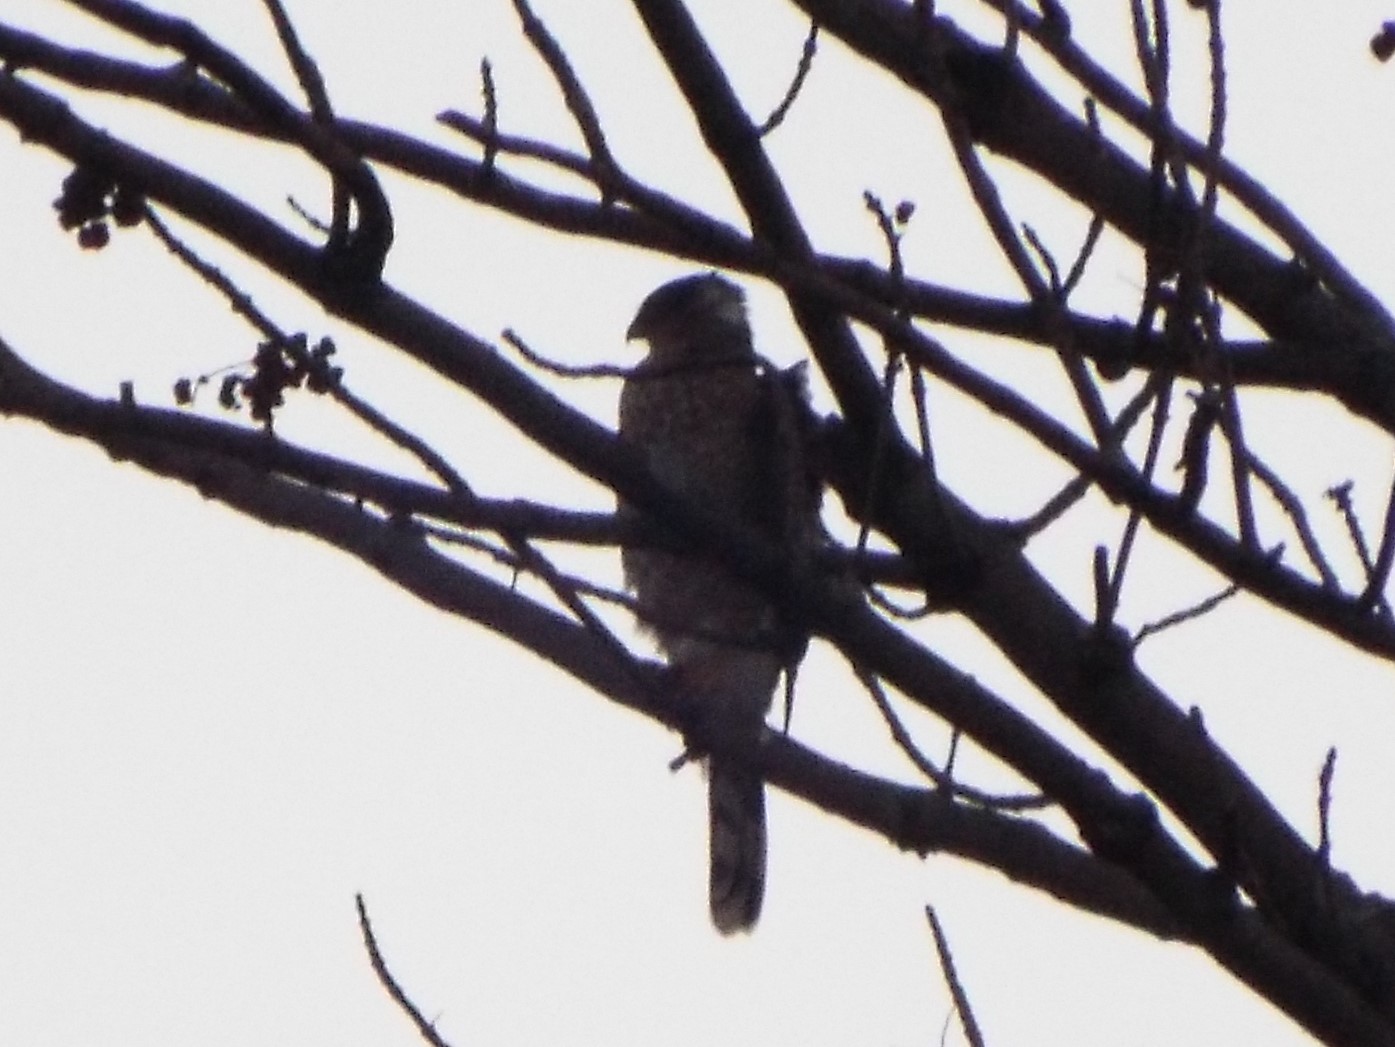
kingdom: Animalia
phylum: Chordata
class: Aves
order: Accipitriformes
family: Accipitridae
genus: Accipiter
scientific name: Accipiter cooperii
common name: Cooper's hawk
